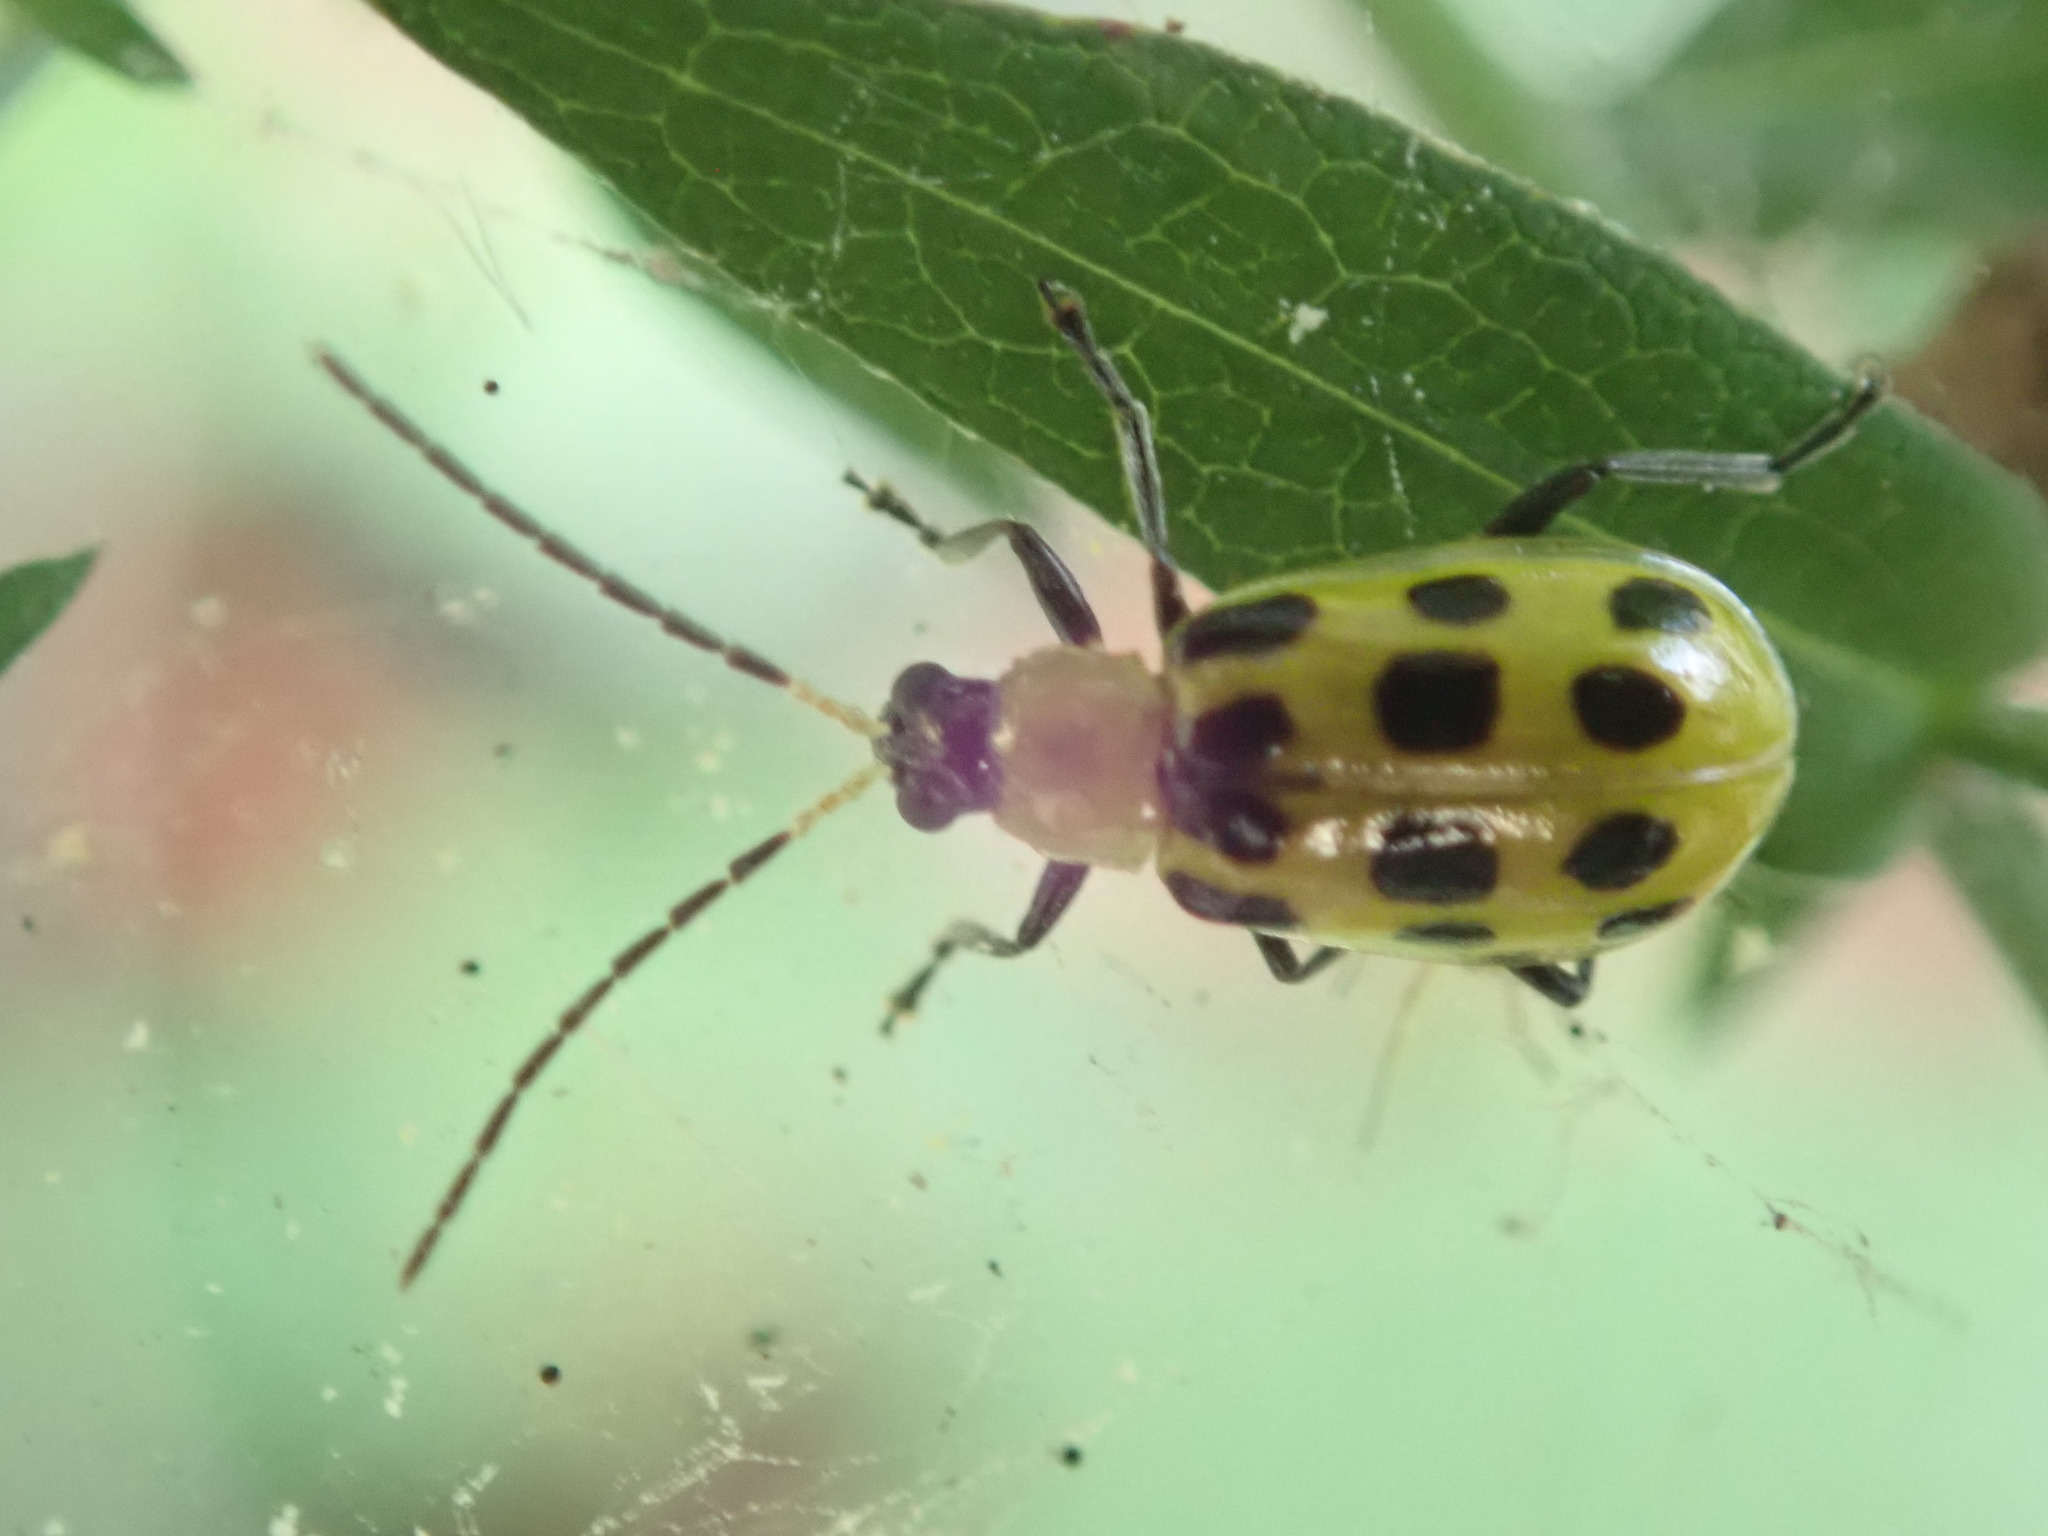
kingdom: Animalia
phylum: Arthropoda
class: Insecta
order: Coleoptera
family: Chrysomelidae
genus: Diabrotica
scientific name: Diabrotica undecimpunctata
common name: Spotted cucumber beetle
